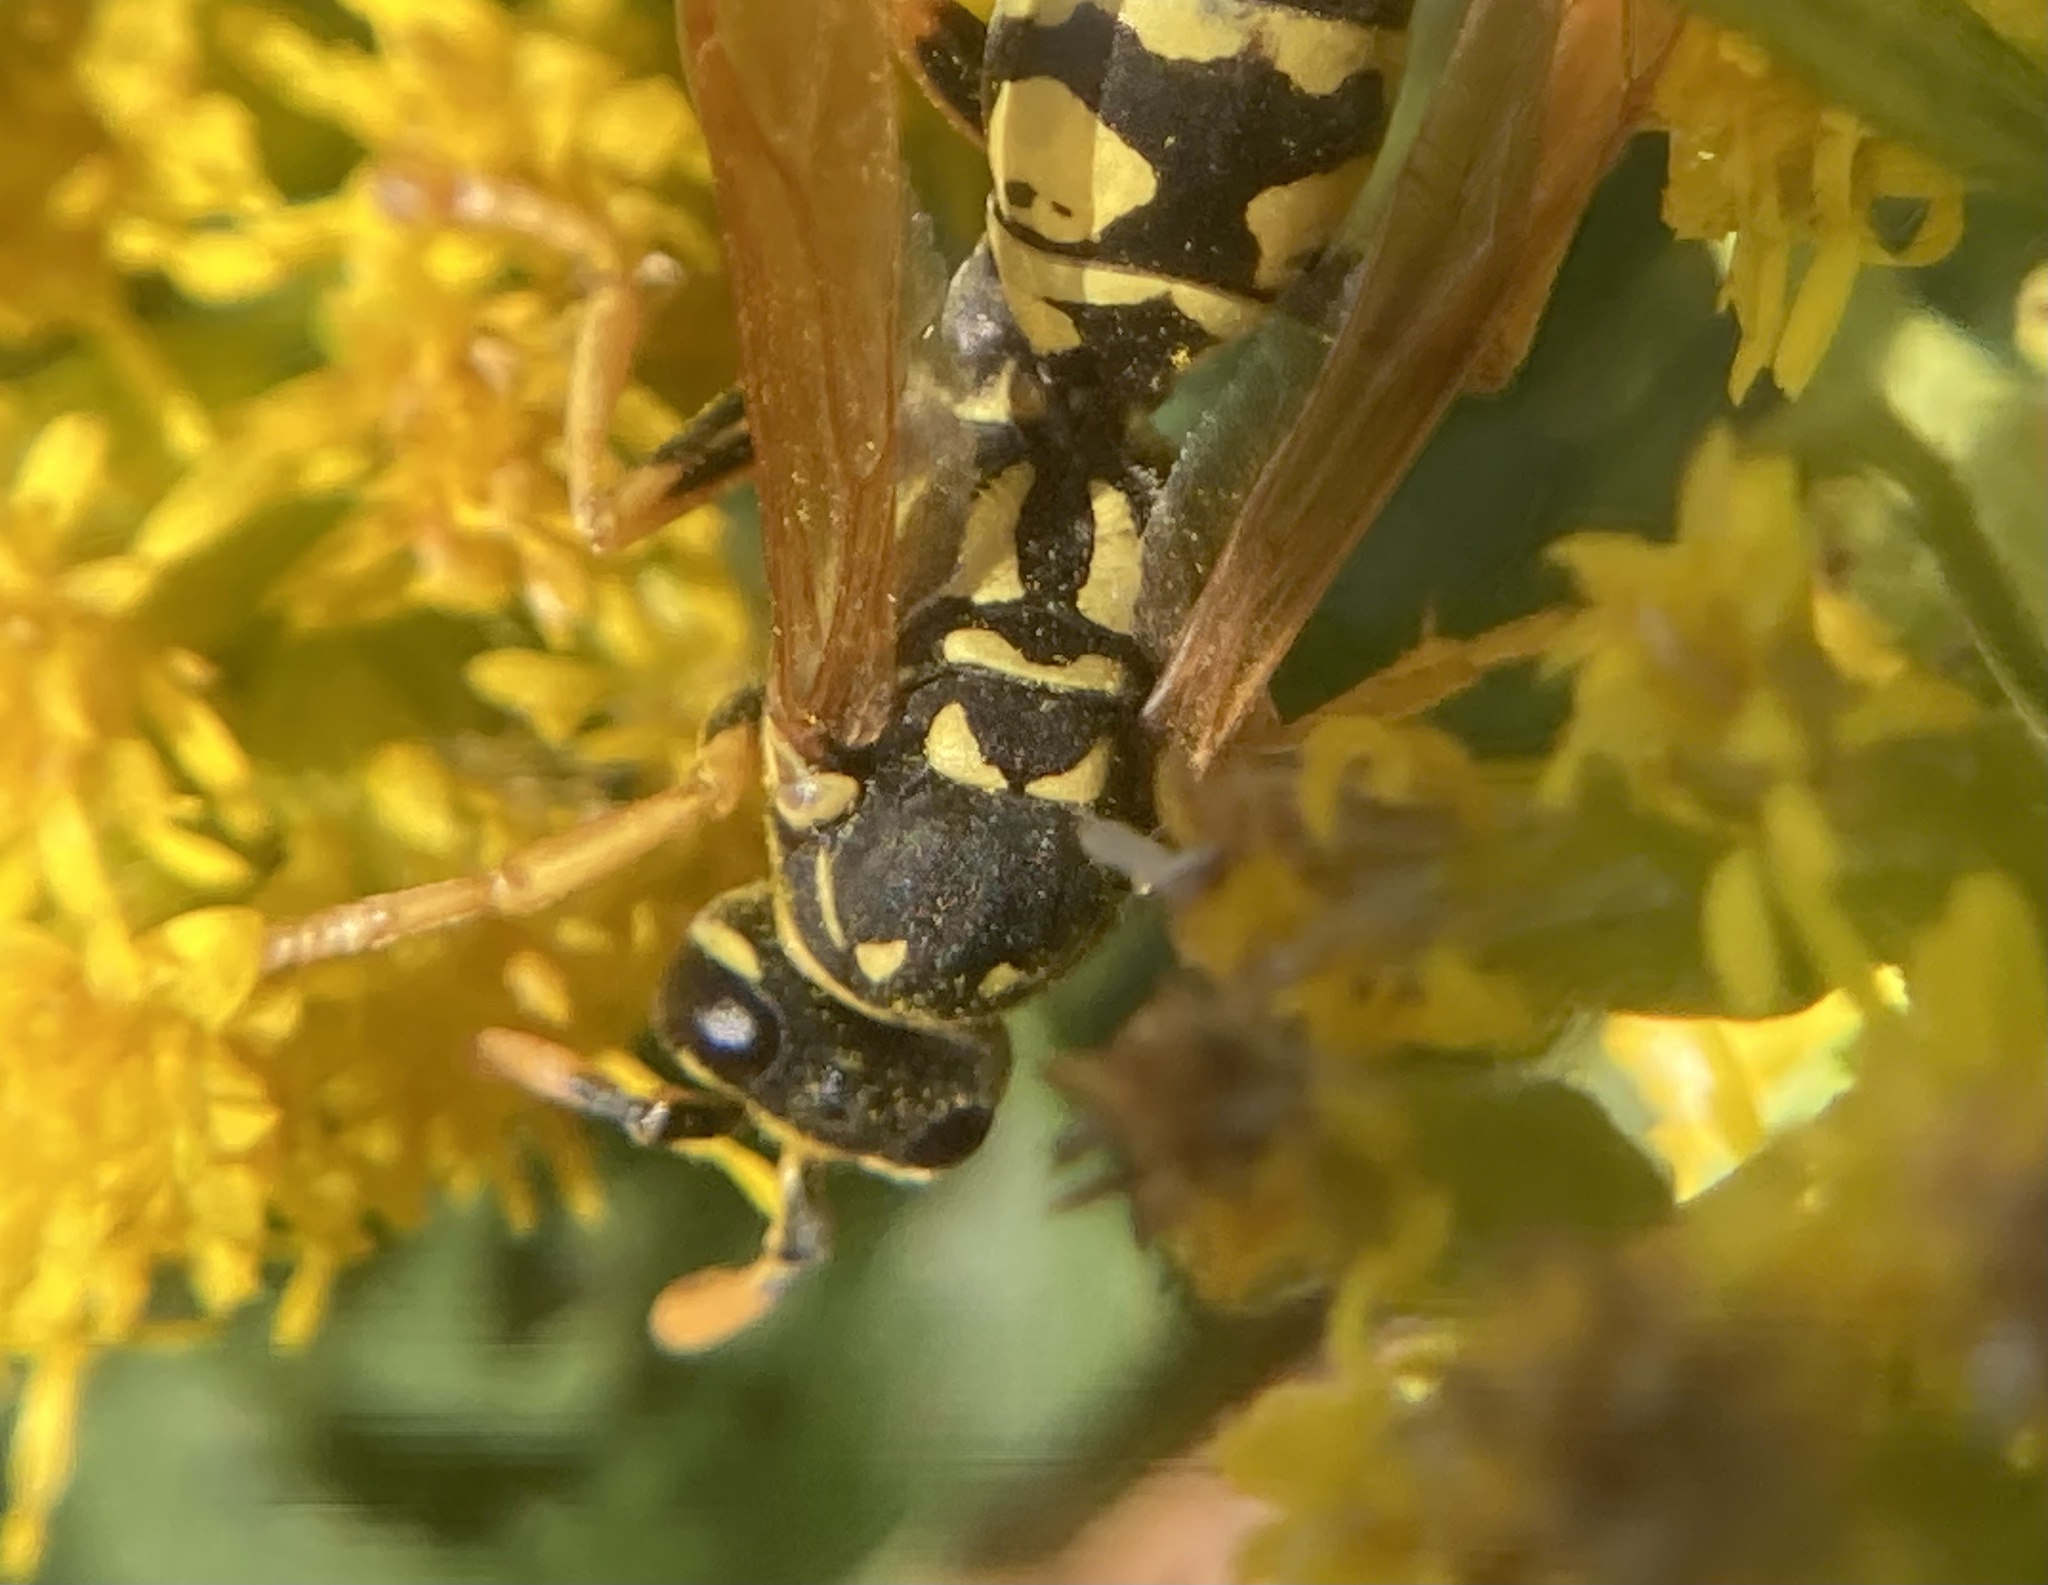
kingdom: Animalia
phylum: Arthropoda
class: Insecta
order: Hymenoptera
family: Eumenidae
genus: Polistes
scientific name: Polistes dominula
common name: Paper wasp
